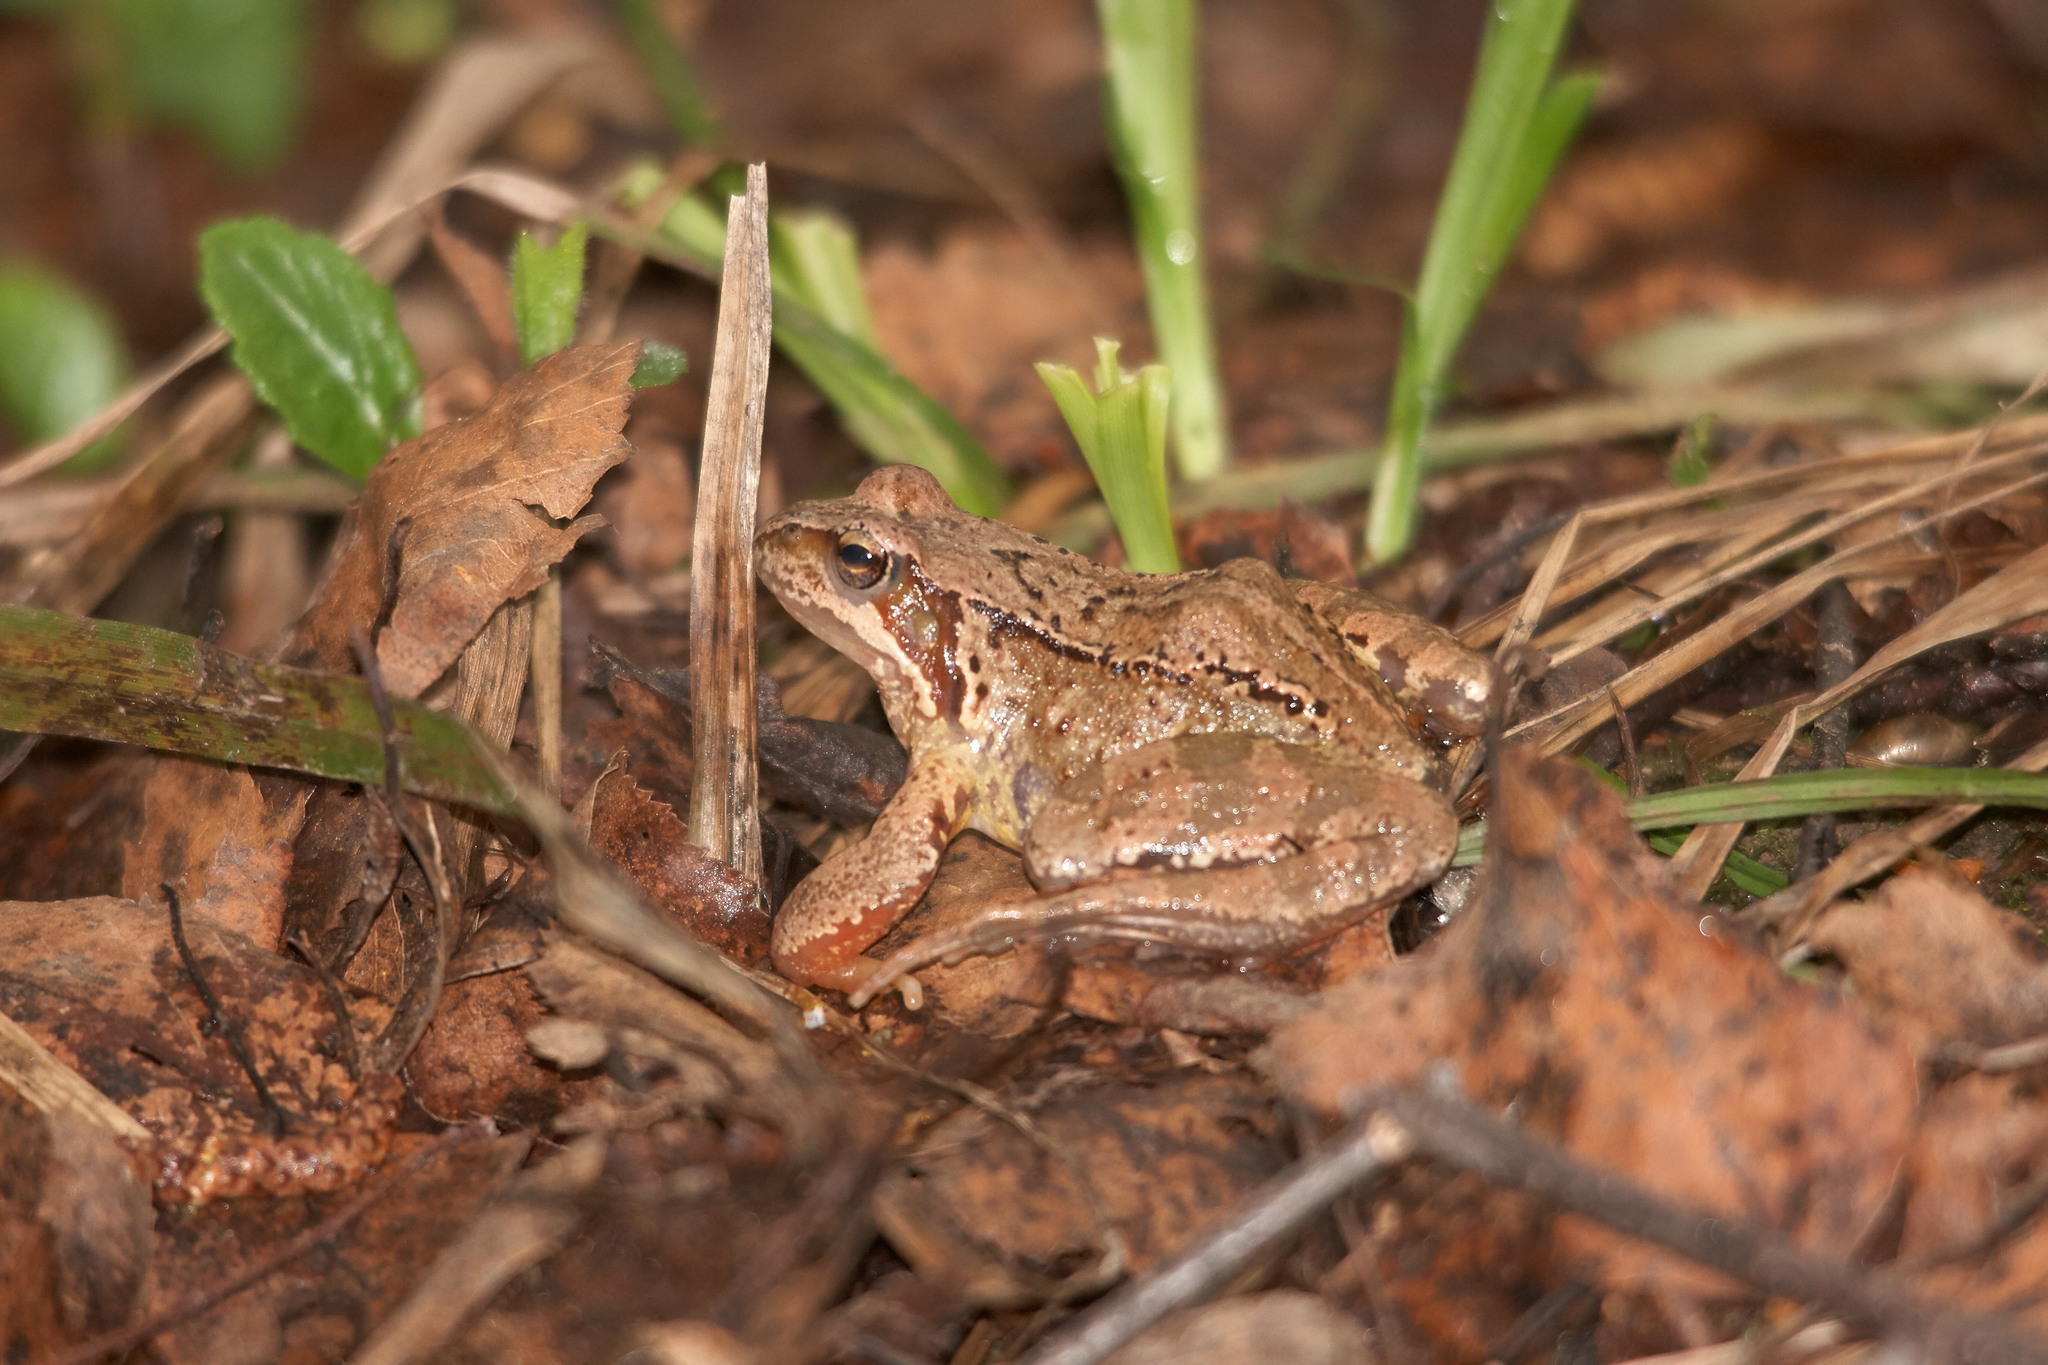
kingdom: Animalia
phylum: Chordata
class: Amphibia
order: Anura
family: Ranidae
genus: Rana
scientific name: Rana temporaria
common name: Common frog
